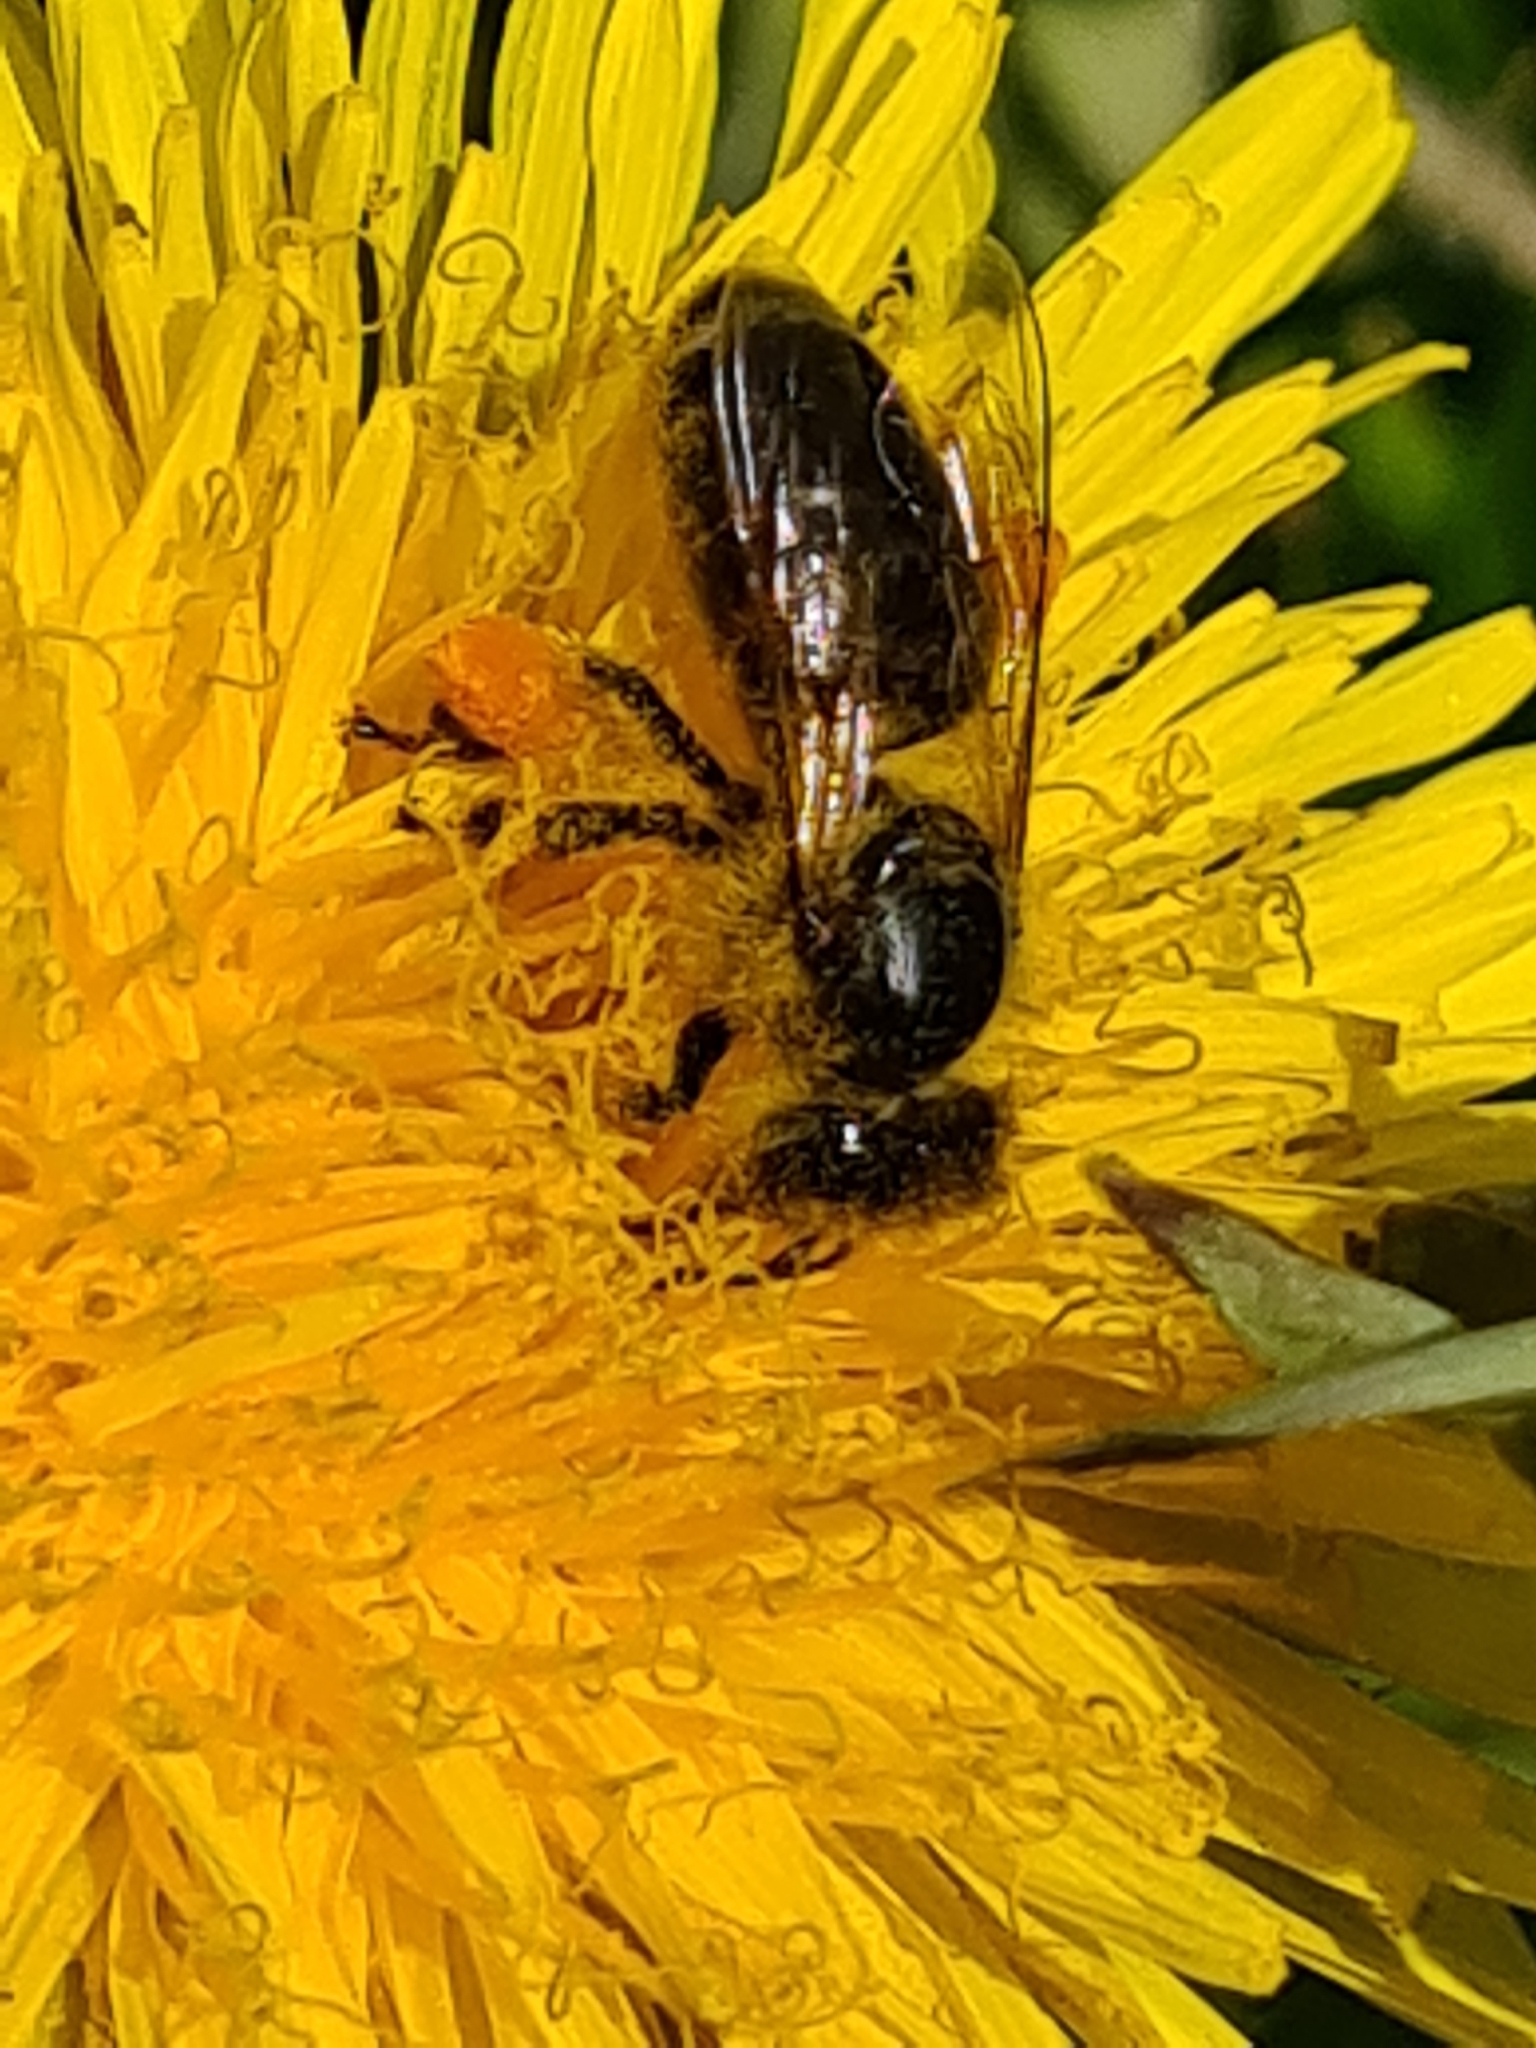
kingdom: Animalia
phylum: Arthropoda
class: Insecta
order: Hymenoptera
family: Apidae
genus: Apis
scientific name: Apis mellifera
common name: Honey bee
